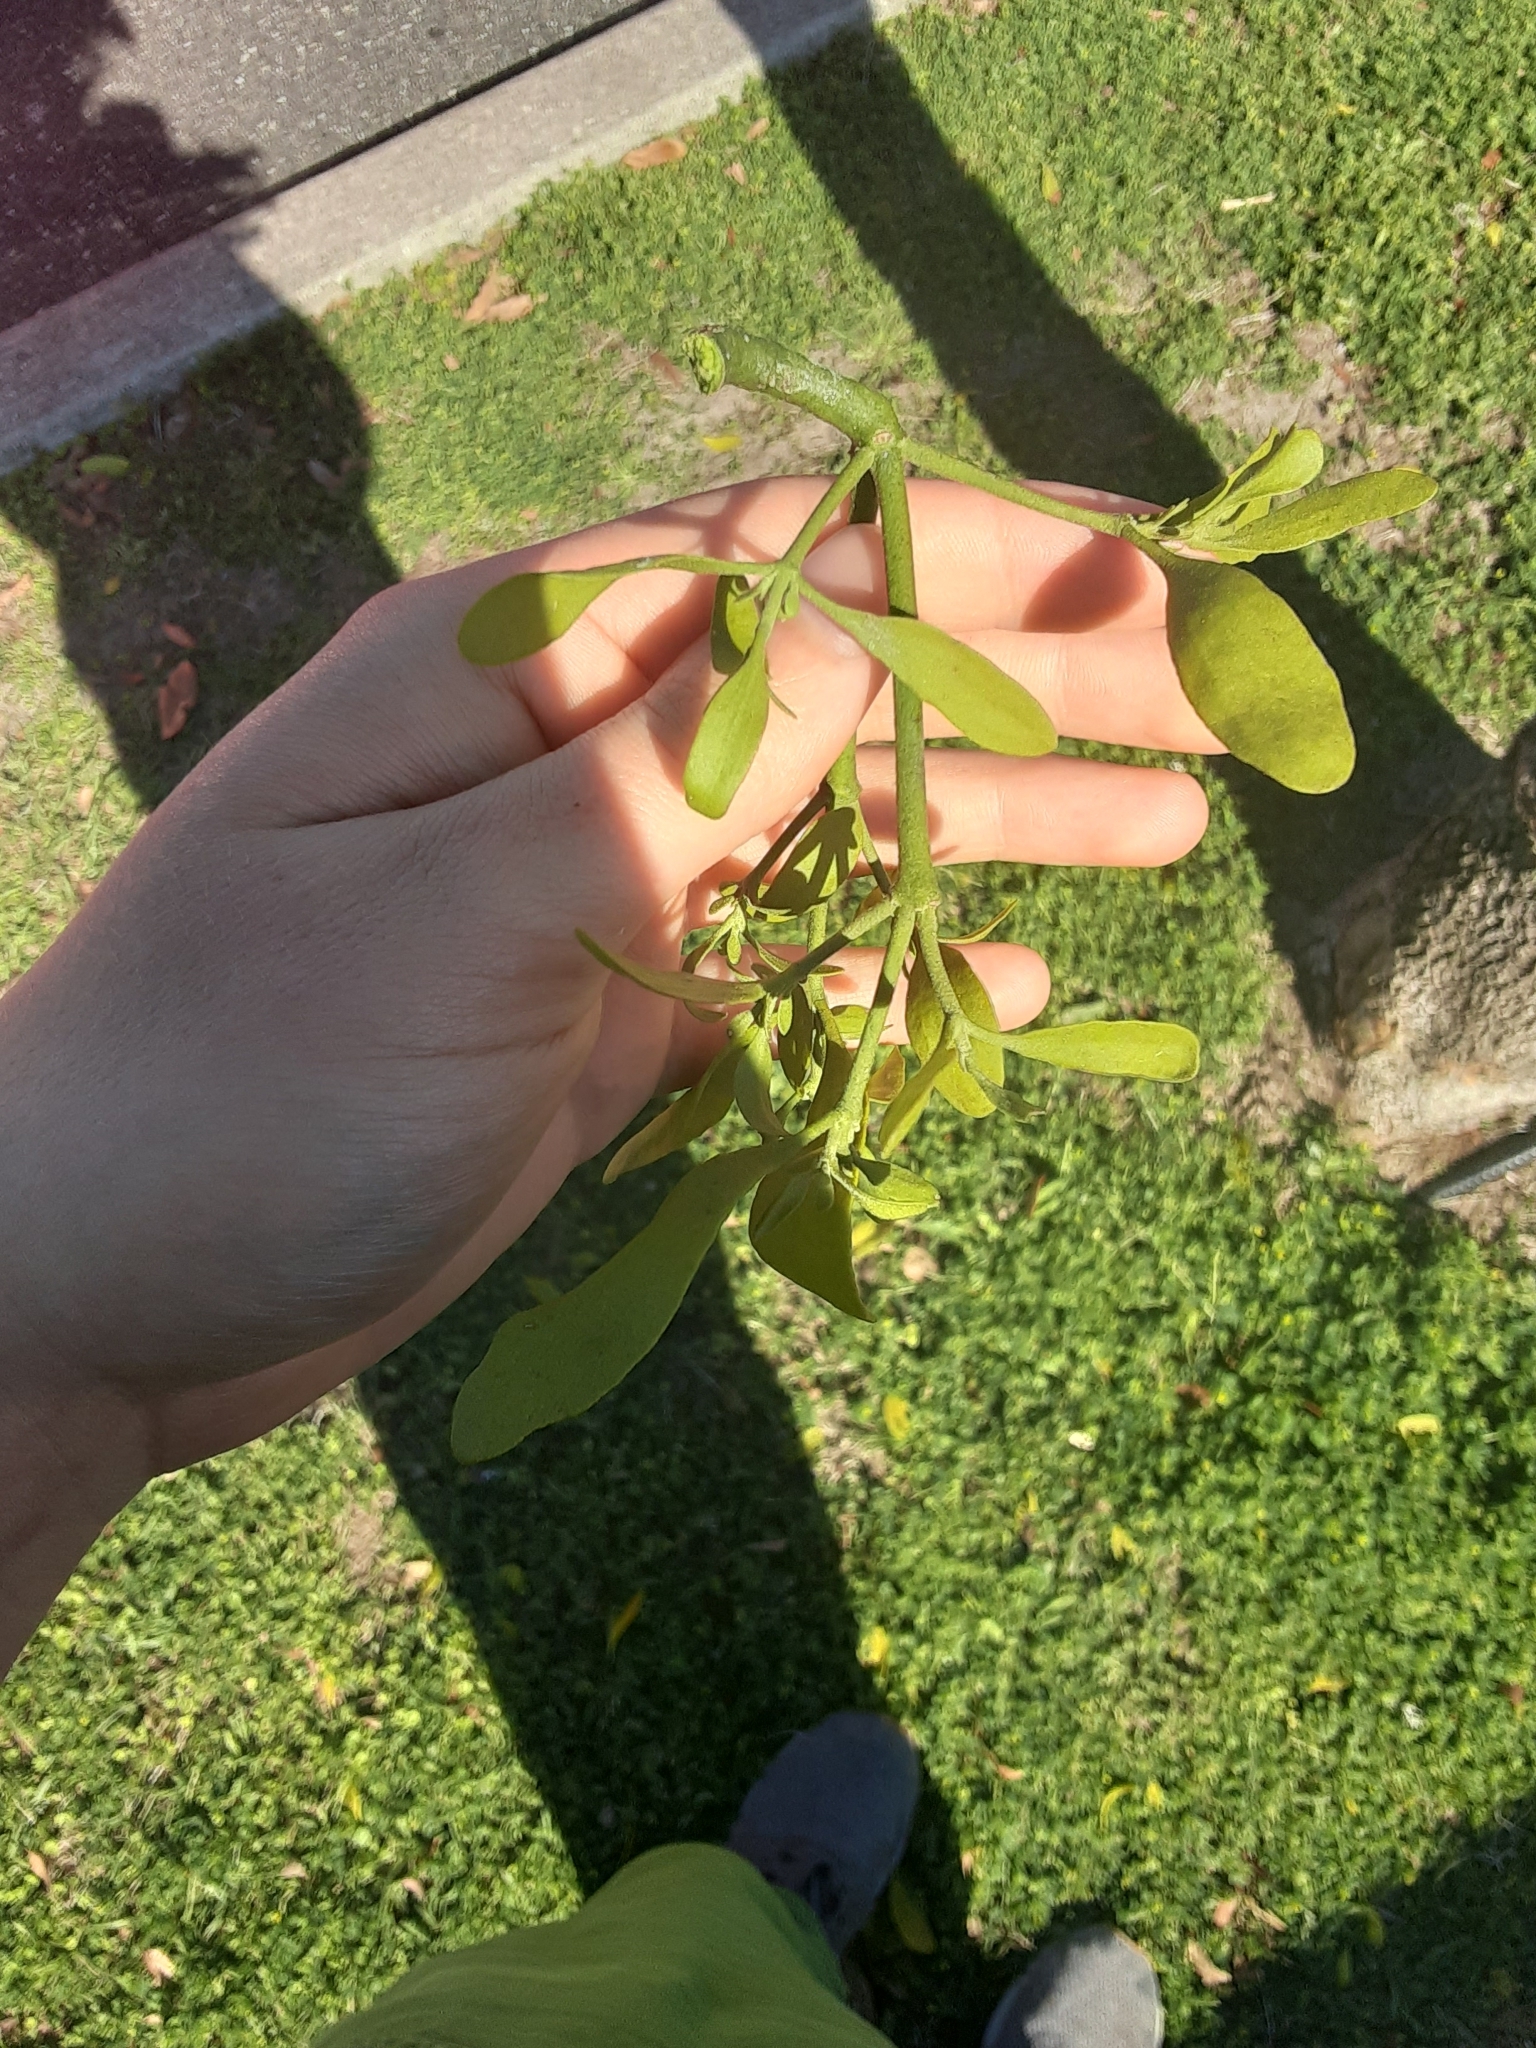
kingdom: Plantae
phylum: Tracheophyta
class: Magnoliopsida
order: Santalales
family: Viscaceae
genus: Phoradendron
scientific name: Phoradendron leucarpum
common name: Pacific mistletoe
